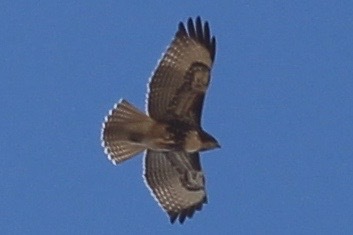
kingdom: Animalia
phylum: Chordata
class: Aves
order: Accipitriformes
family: Accipitridae
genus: Buteo
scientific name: Buteo jamaicensis
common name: Red-tailed hawk
